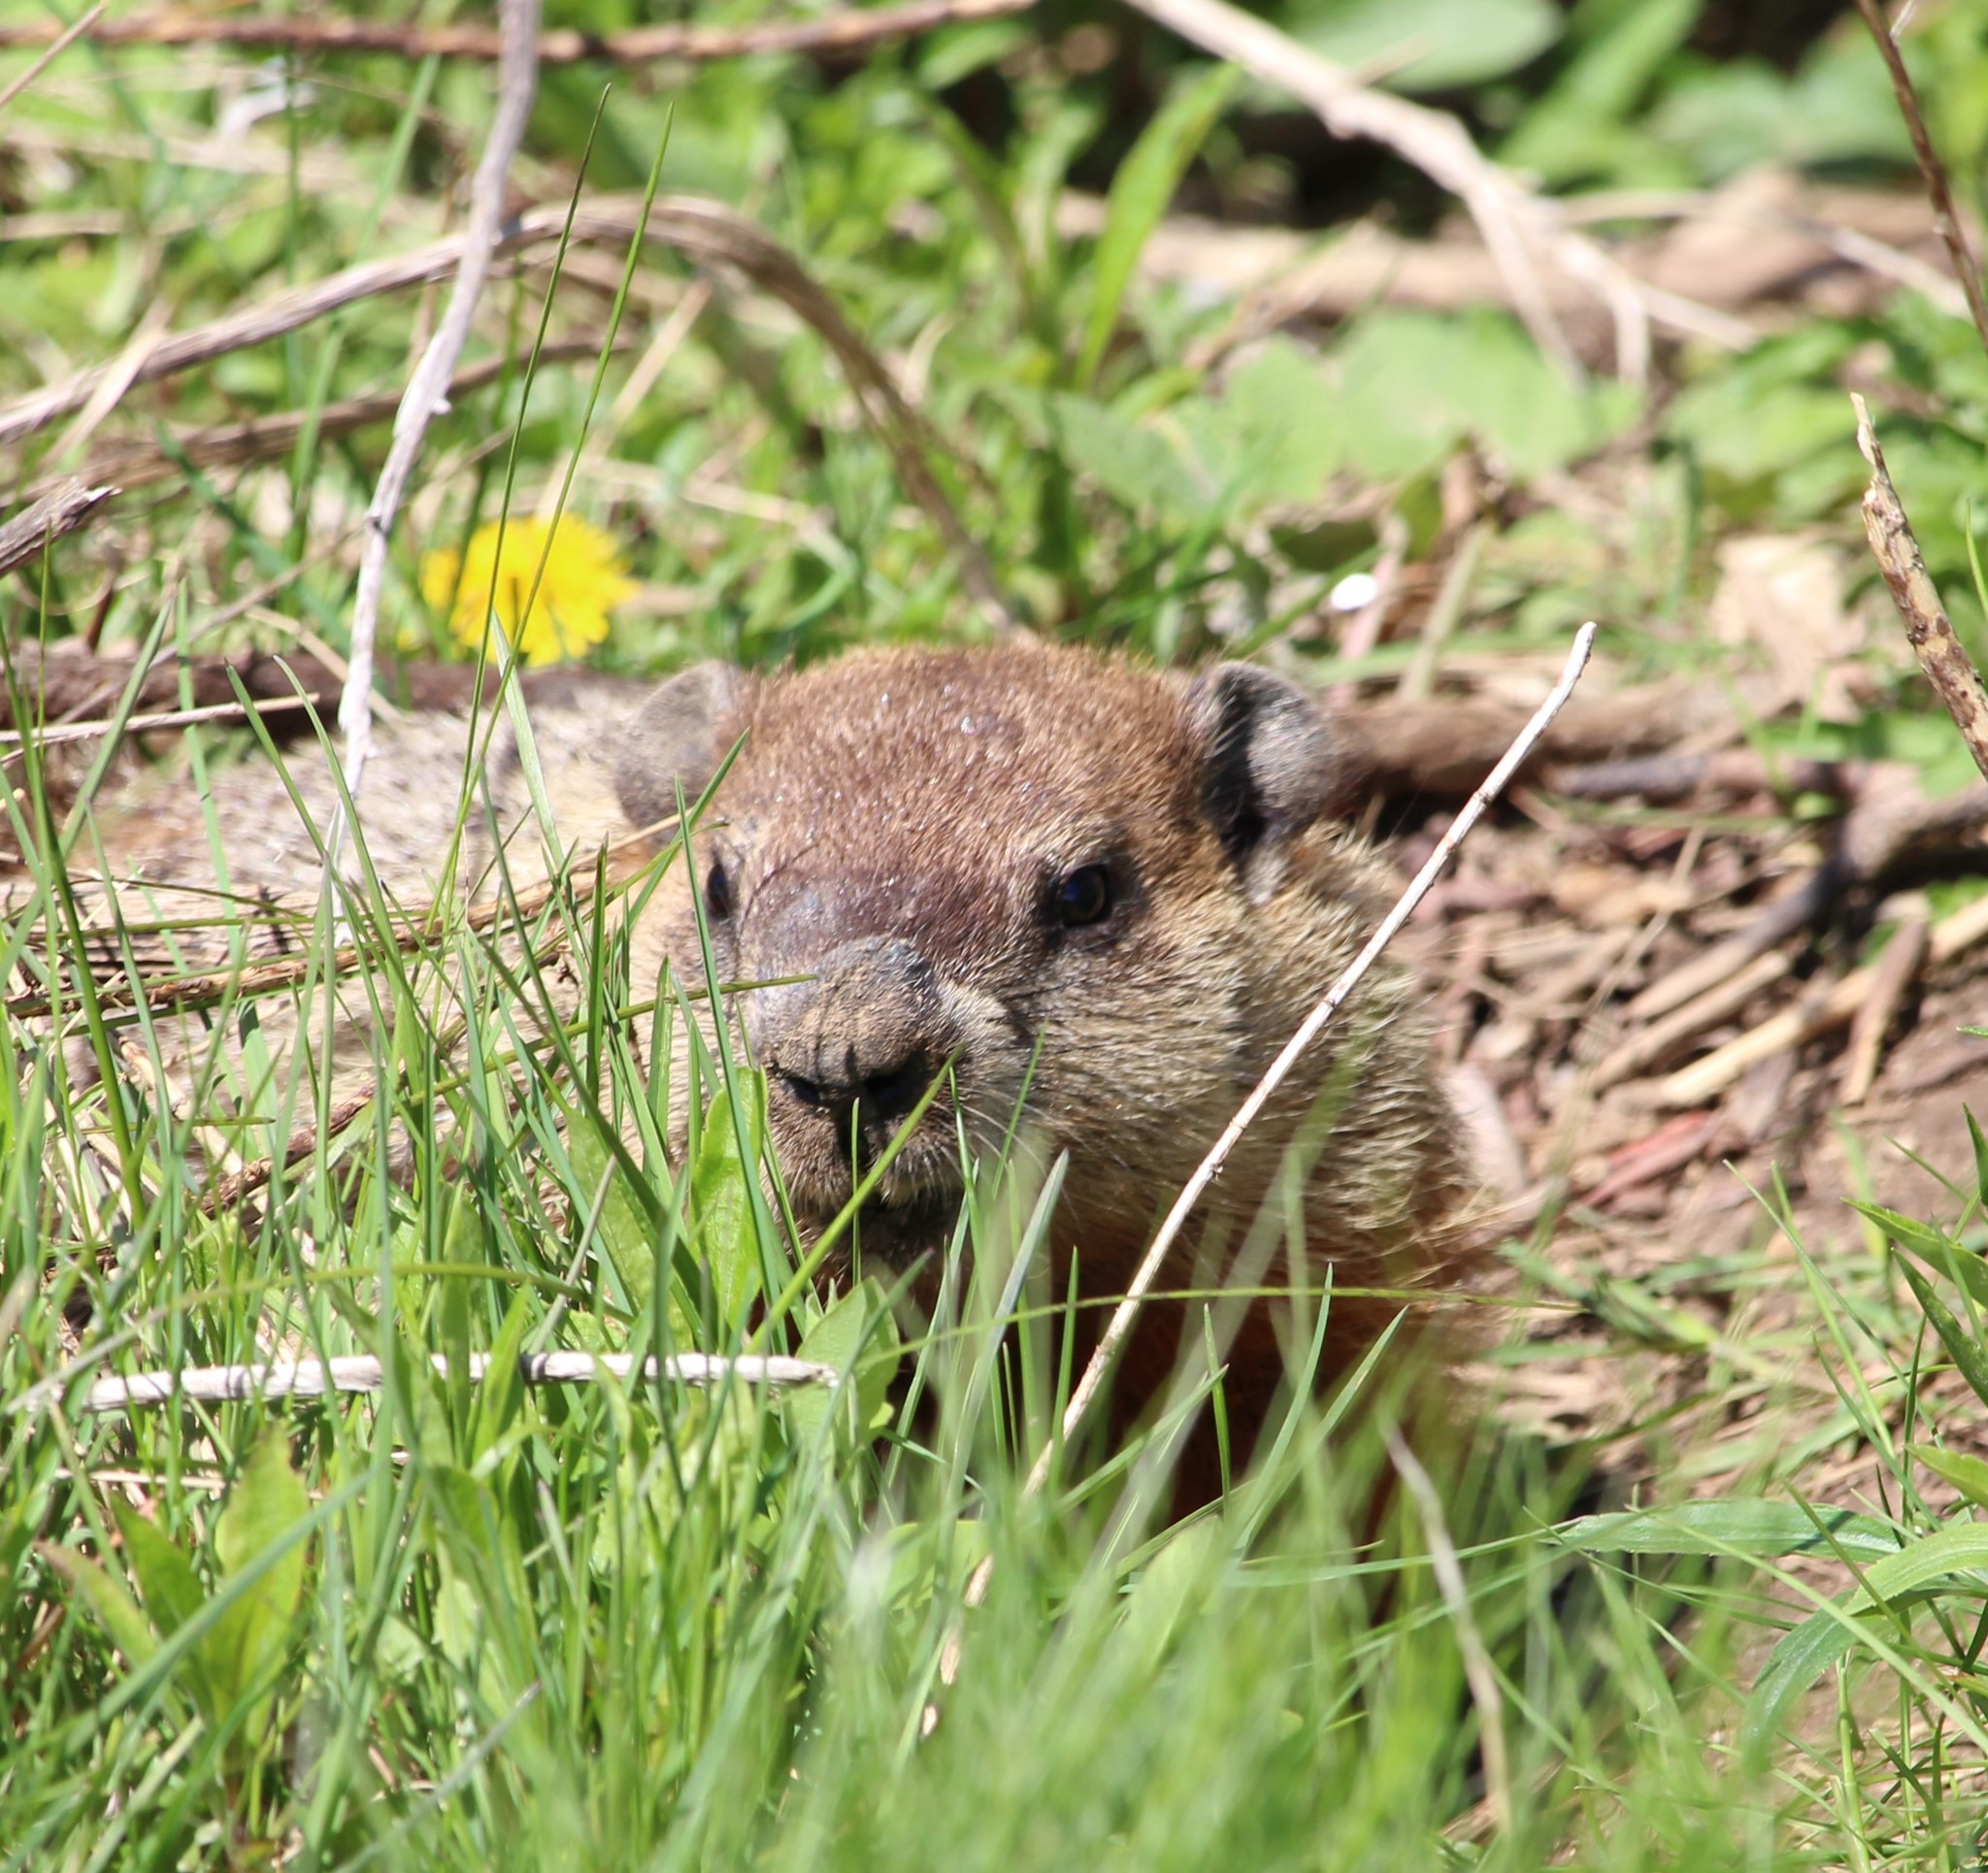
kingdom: Animalia
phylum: Chordata
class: Mammalia
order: Rodentia
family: Sciuridae
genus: Marmota
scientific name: Marmota monax
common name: Groundhog
